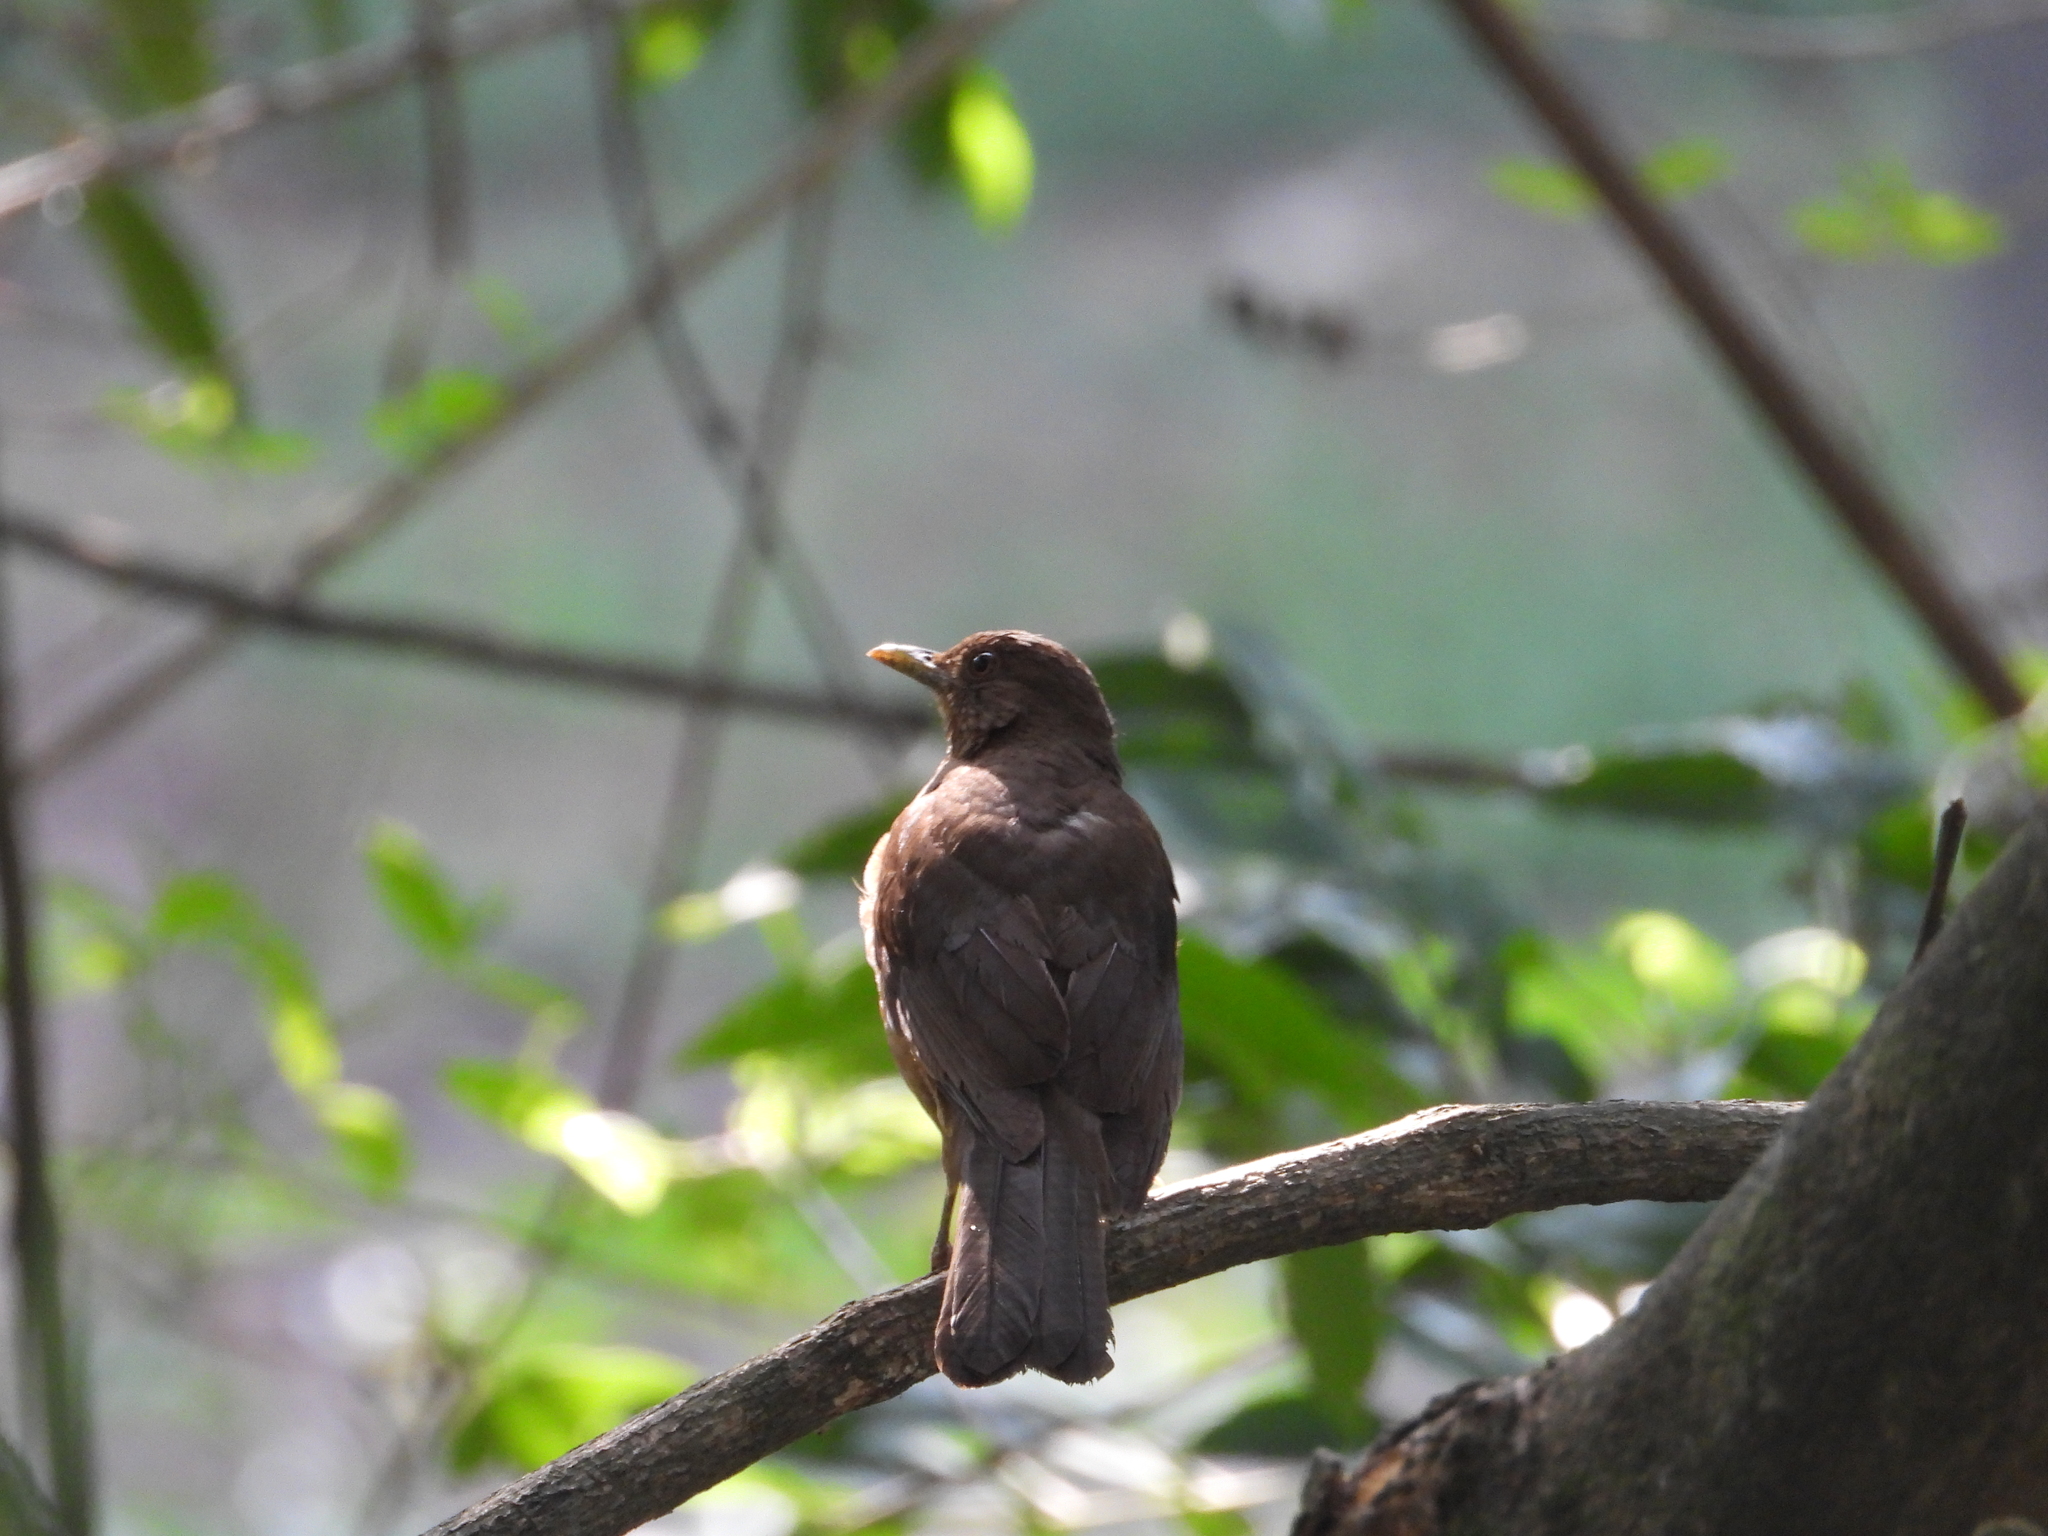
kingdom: Animalia
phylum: Chordata
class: Aves
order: Passeriformes
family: Turdidae
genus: Turdus
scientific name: Turdus grayi
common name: Clay-colored thrush
